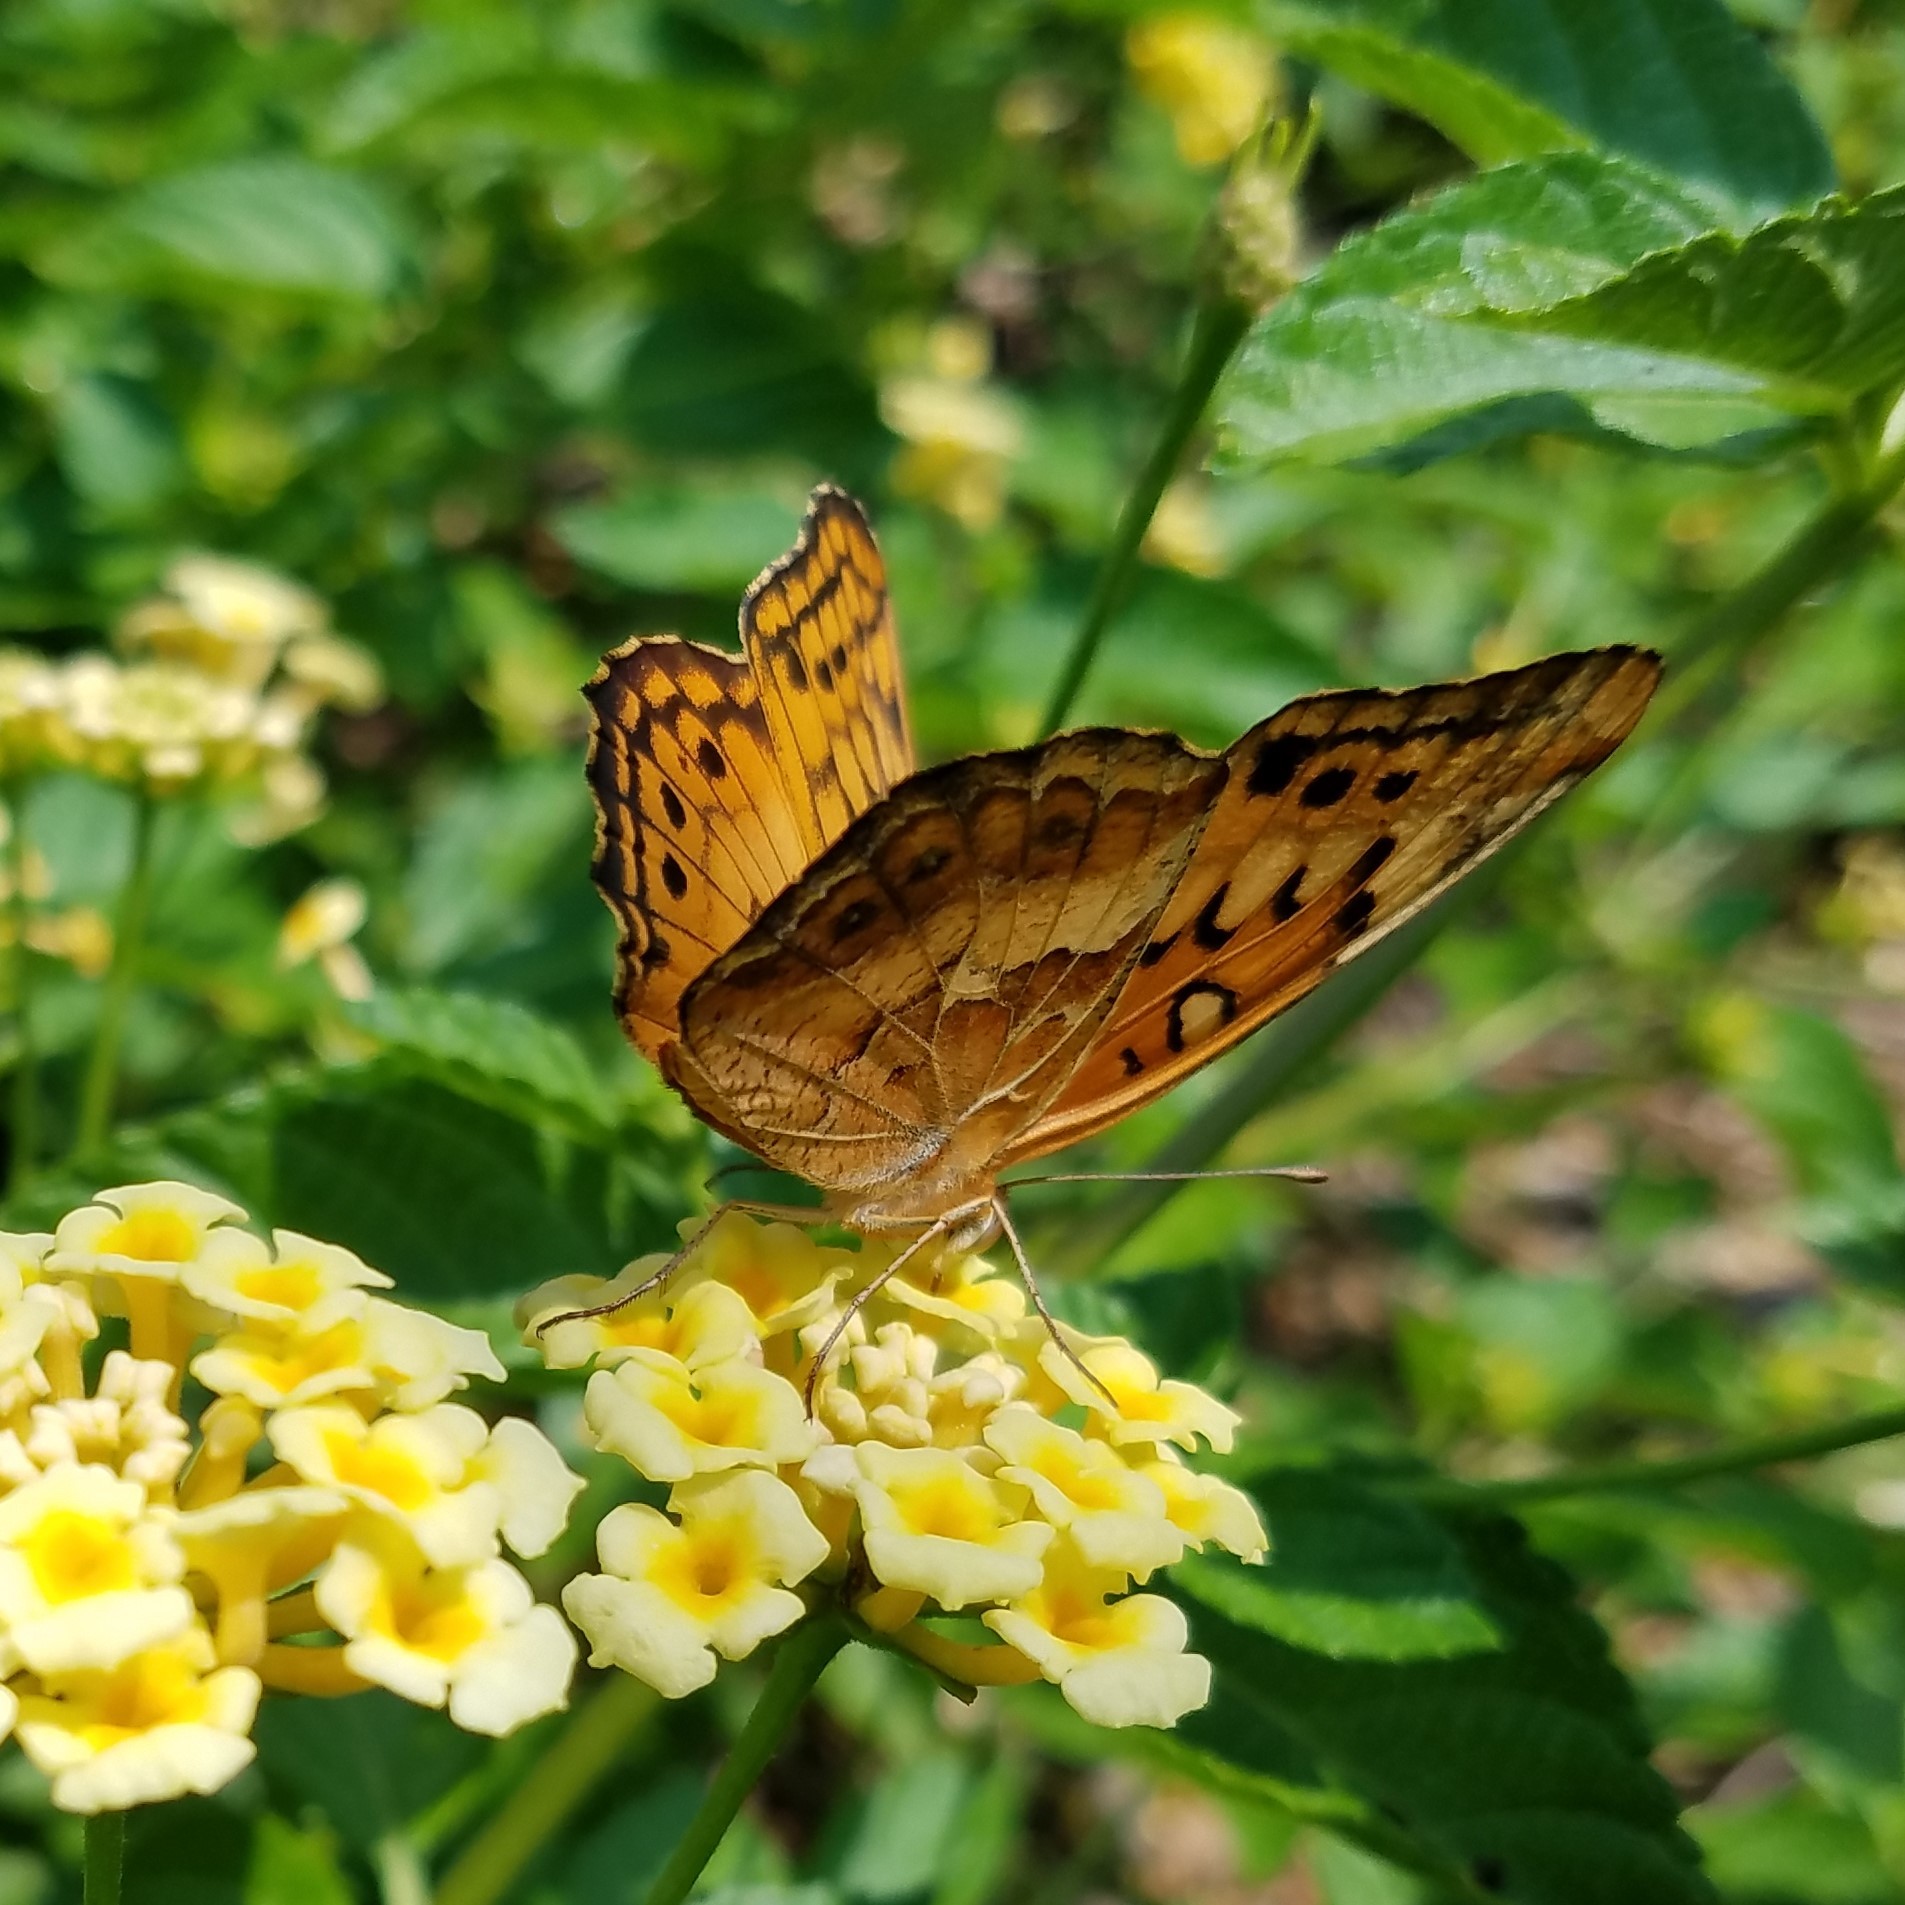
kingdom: Animalia
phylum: Arthropoda
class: Insecta
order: Lepidoptera
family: Nymphalidae
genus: Euptoieta
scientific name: Euptoieta claudia
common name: Variegated fritillary
